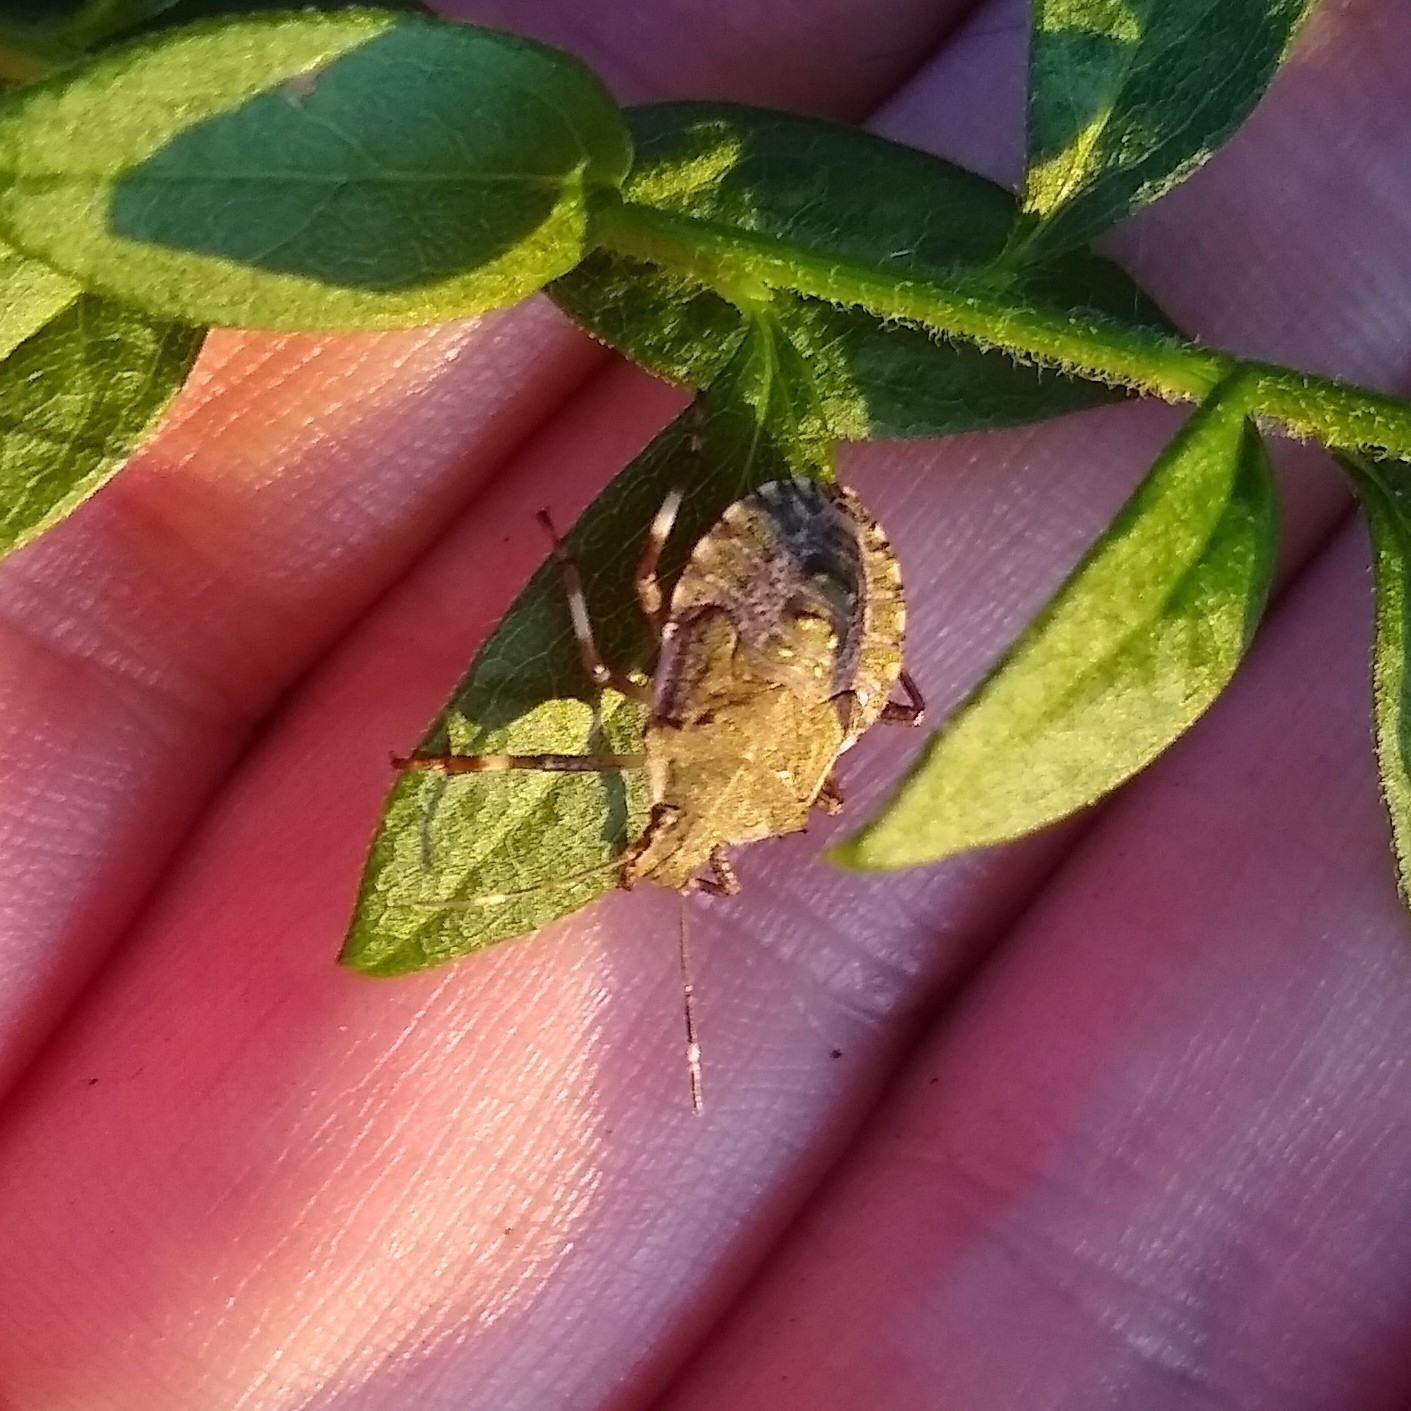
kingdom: Animalia
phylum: Arthropoda
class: Insecta
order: Hemiptera
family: Pentatomidae
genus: Halyomorpha
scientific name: Halyomorpha halys
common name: Brown marmorated stink bug
